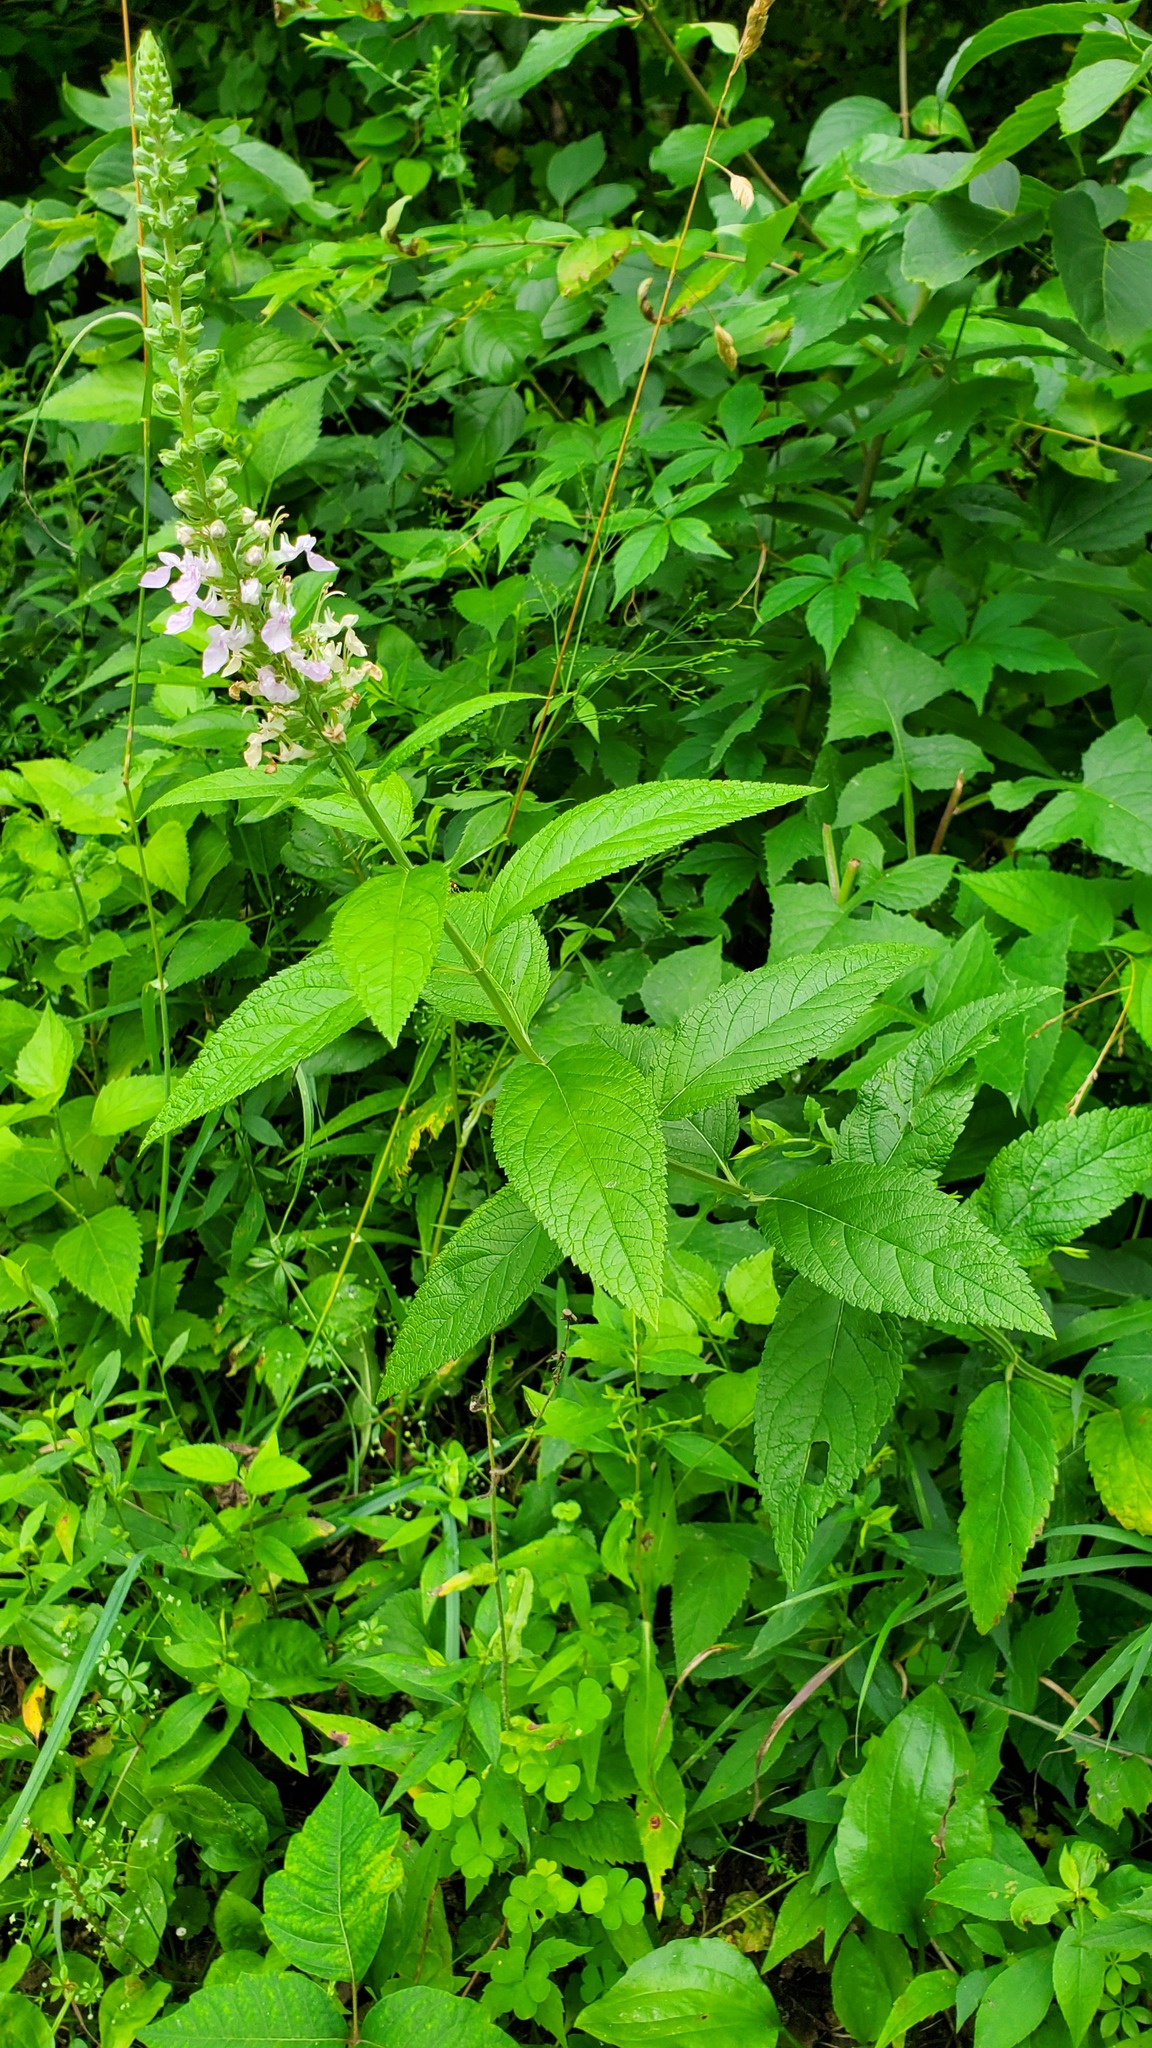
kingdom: Plantae
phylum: Tracheophyta
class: Magnoliopsida
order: Lamiales
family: Lamiaceae
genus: Teucrium
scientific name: Teucrium canadense
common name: American germander
